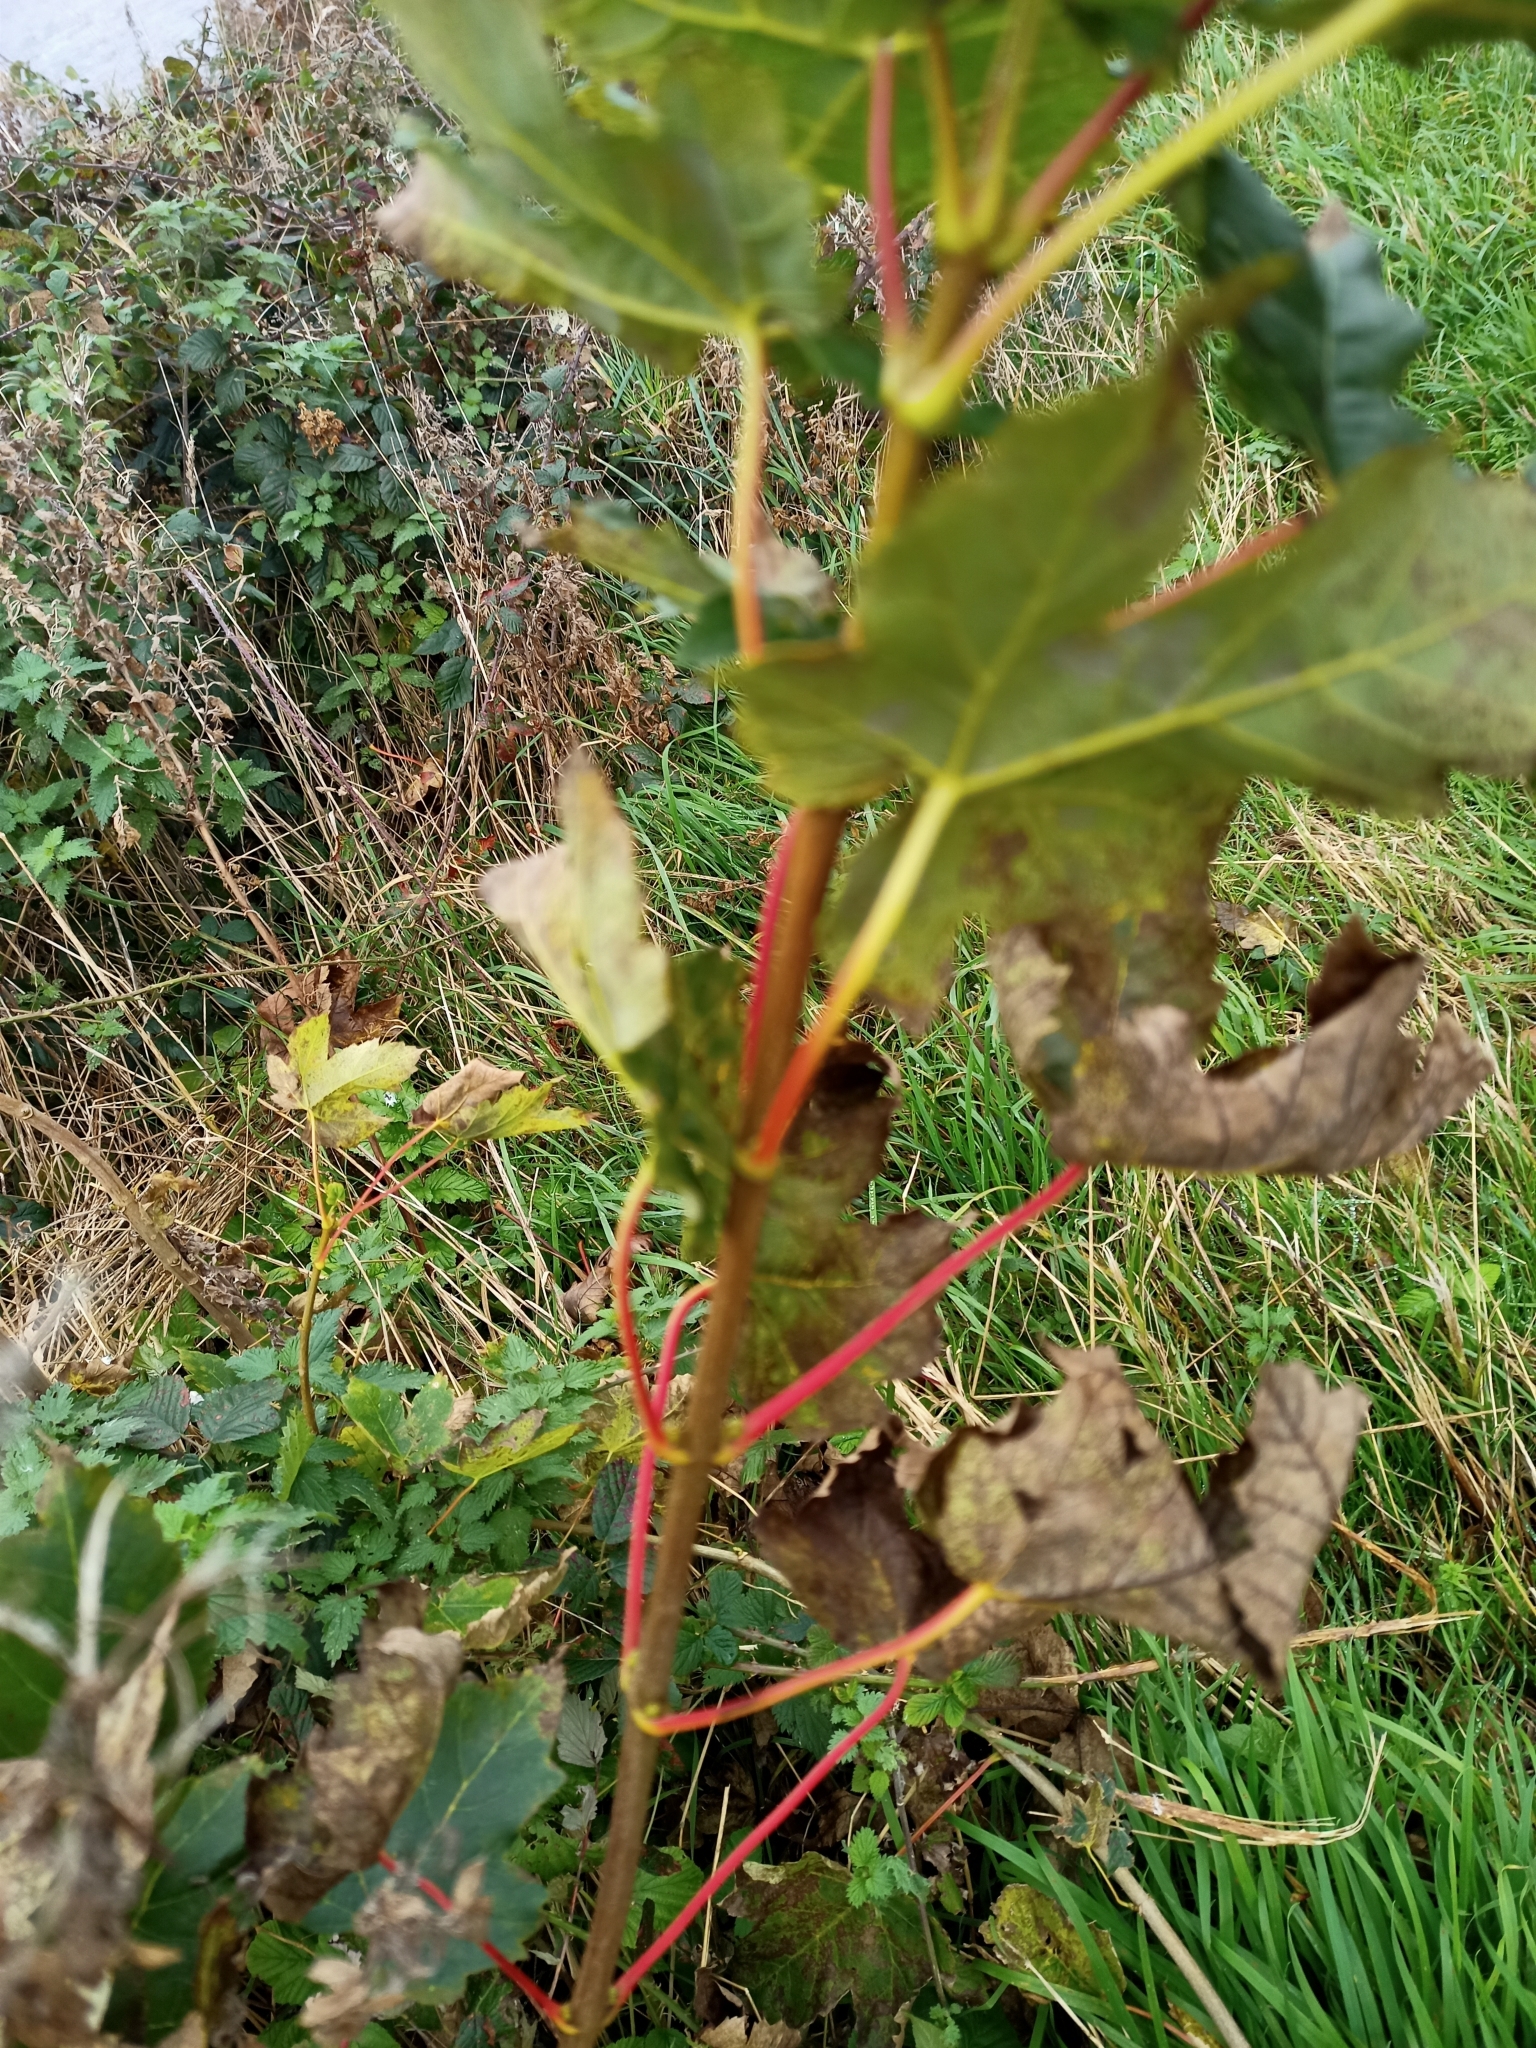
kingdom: Plantae
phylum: Tracheophyta
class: Magnoliopsida
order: Sapindales
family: Sapindaceae
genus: Acer
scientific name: Acer pseudoplatanus
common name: Sycamore
